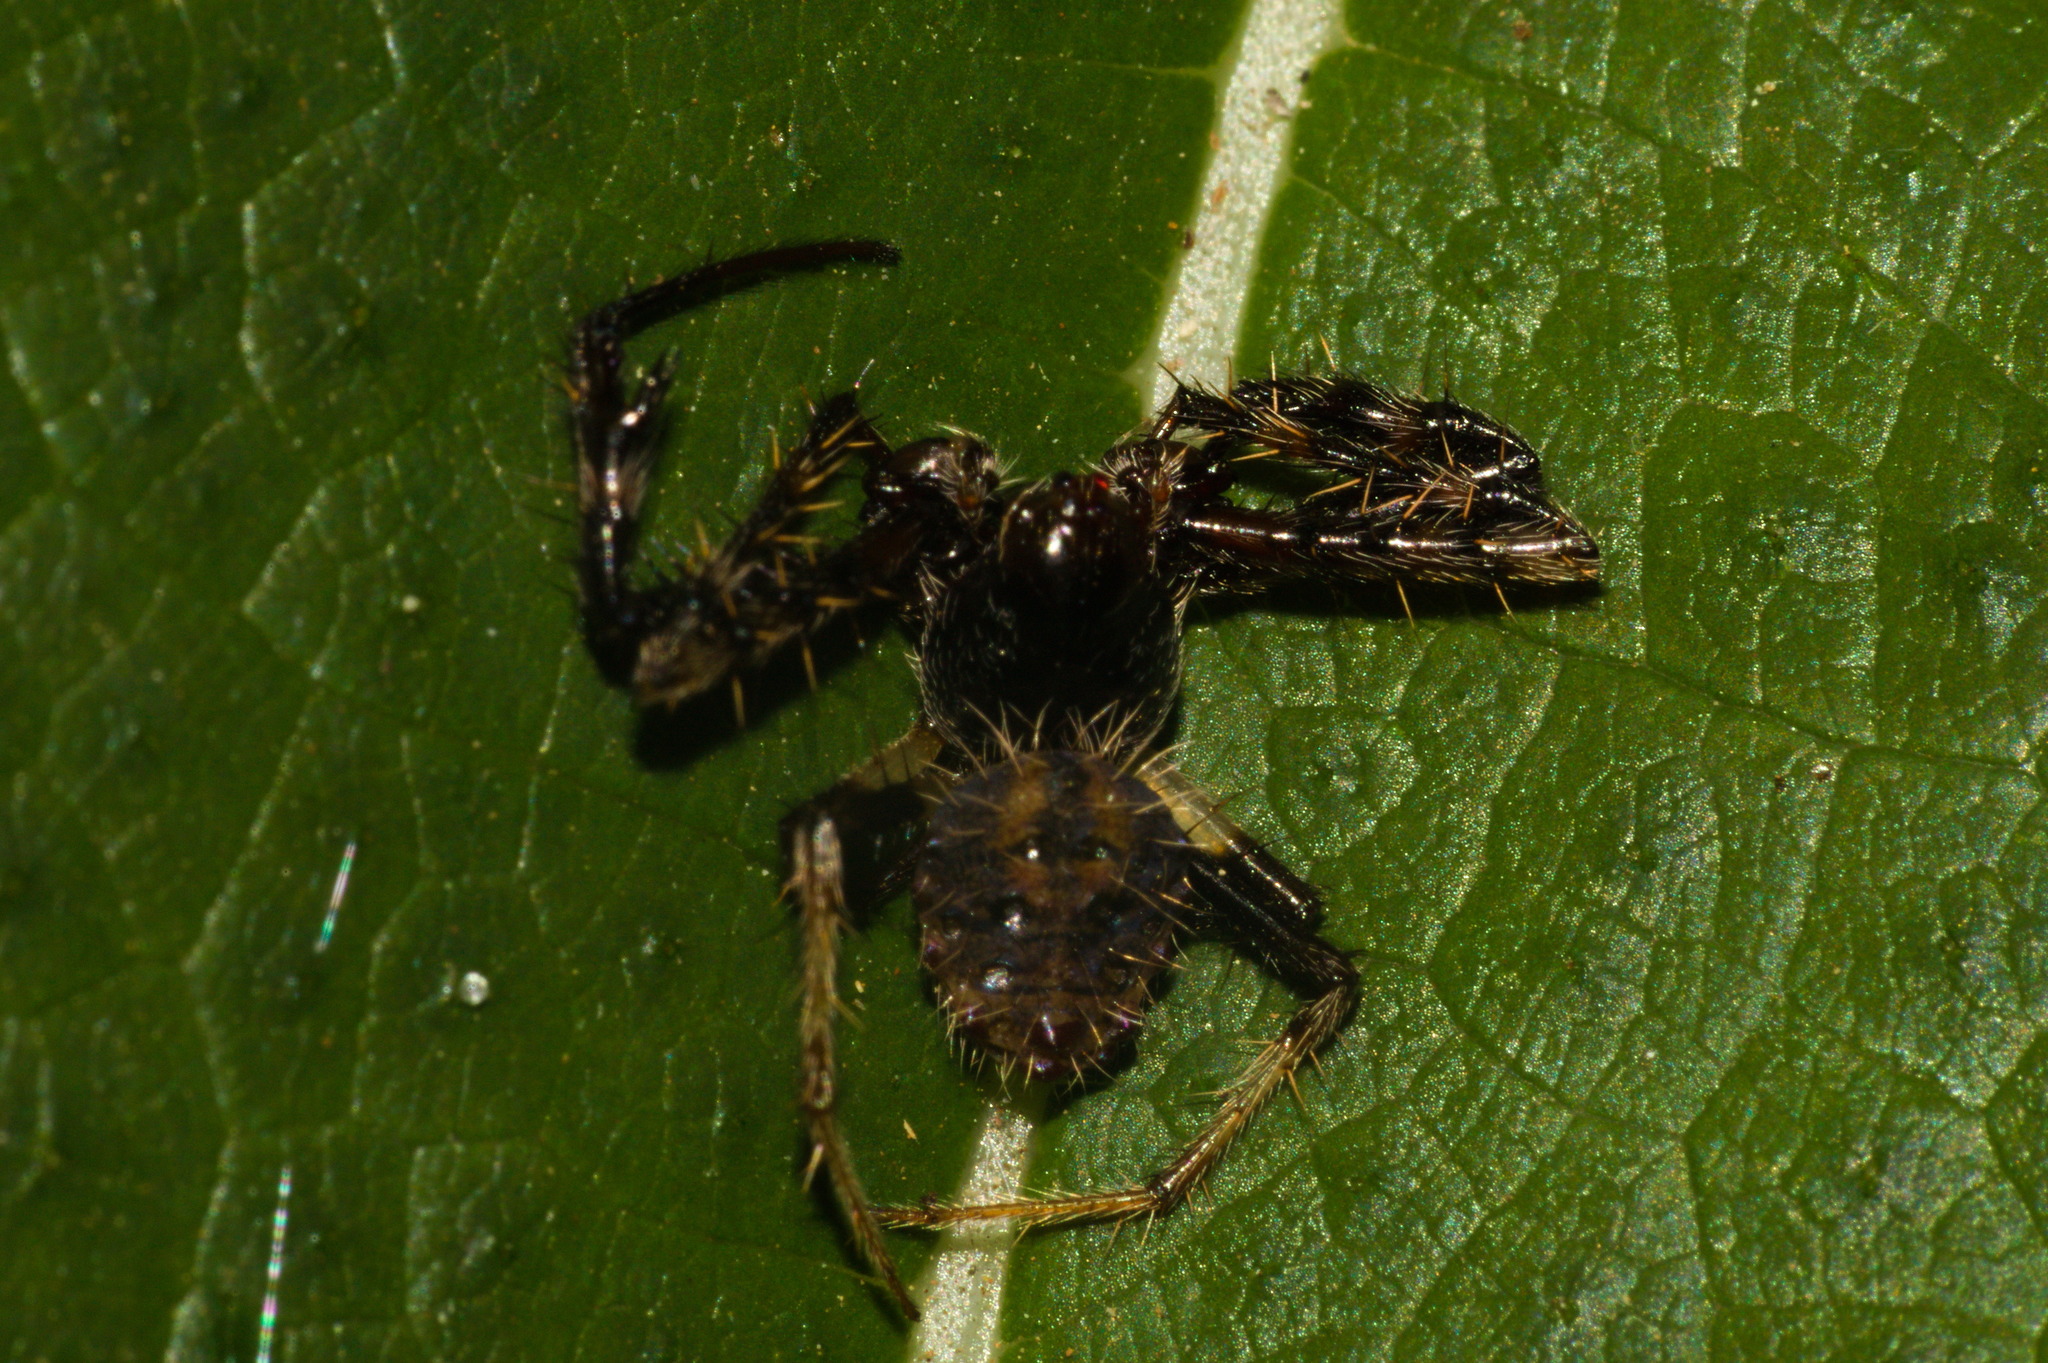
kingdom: Animalia
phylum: Arthropoda
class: Arachnida
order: Araneae
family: Araneidae
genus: Verrucosa
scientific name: Verrucosa scapofracta
